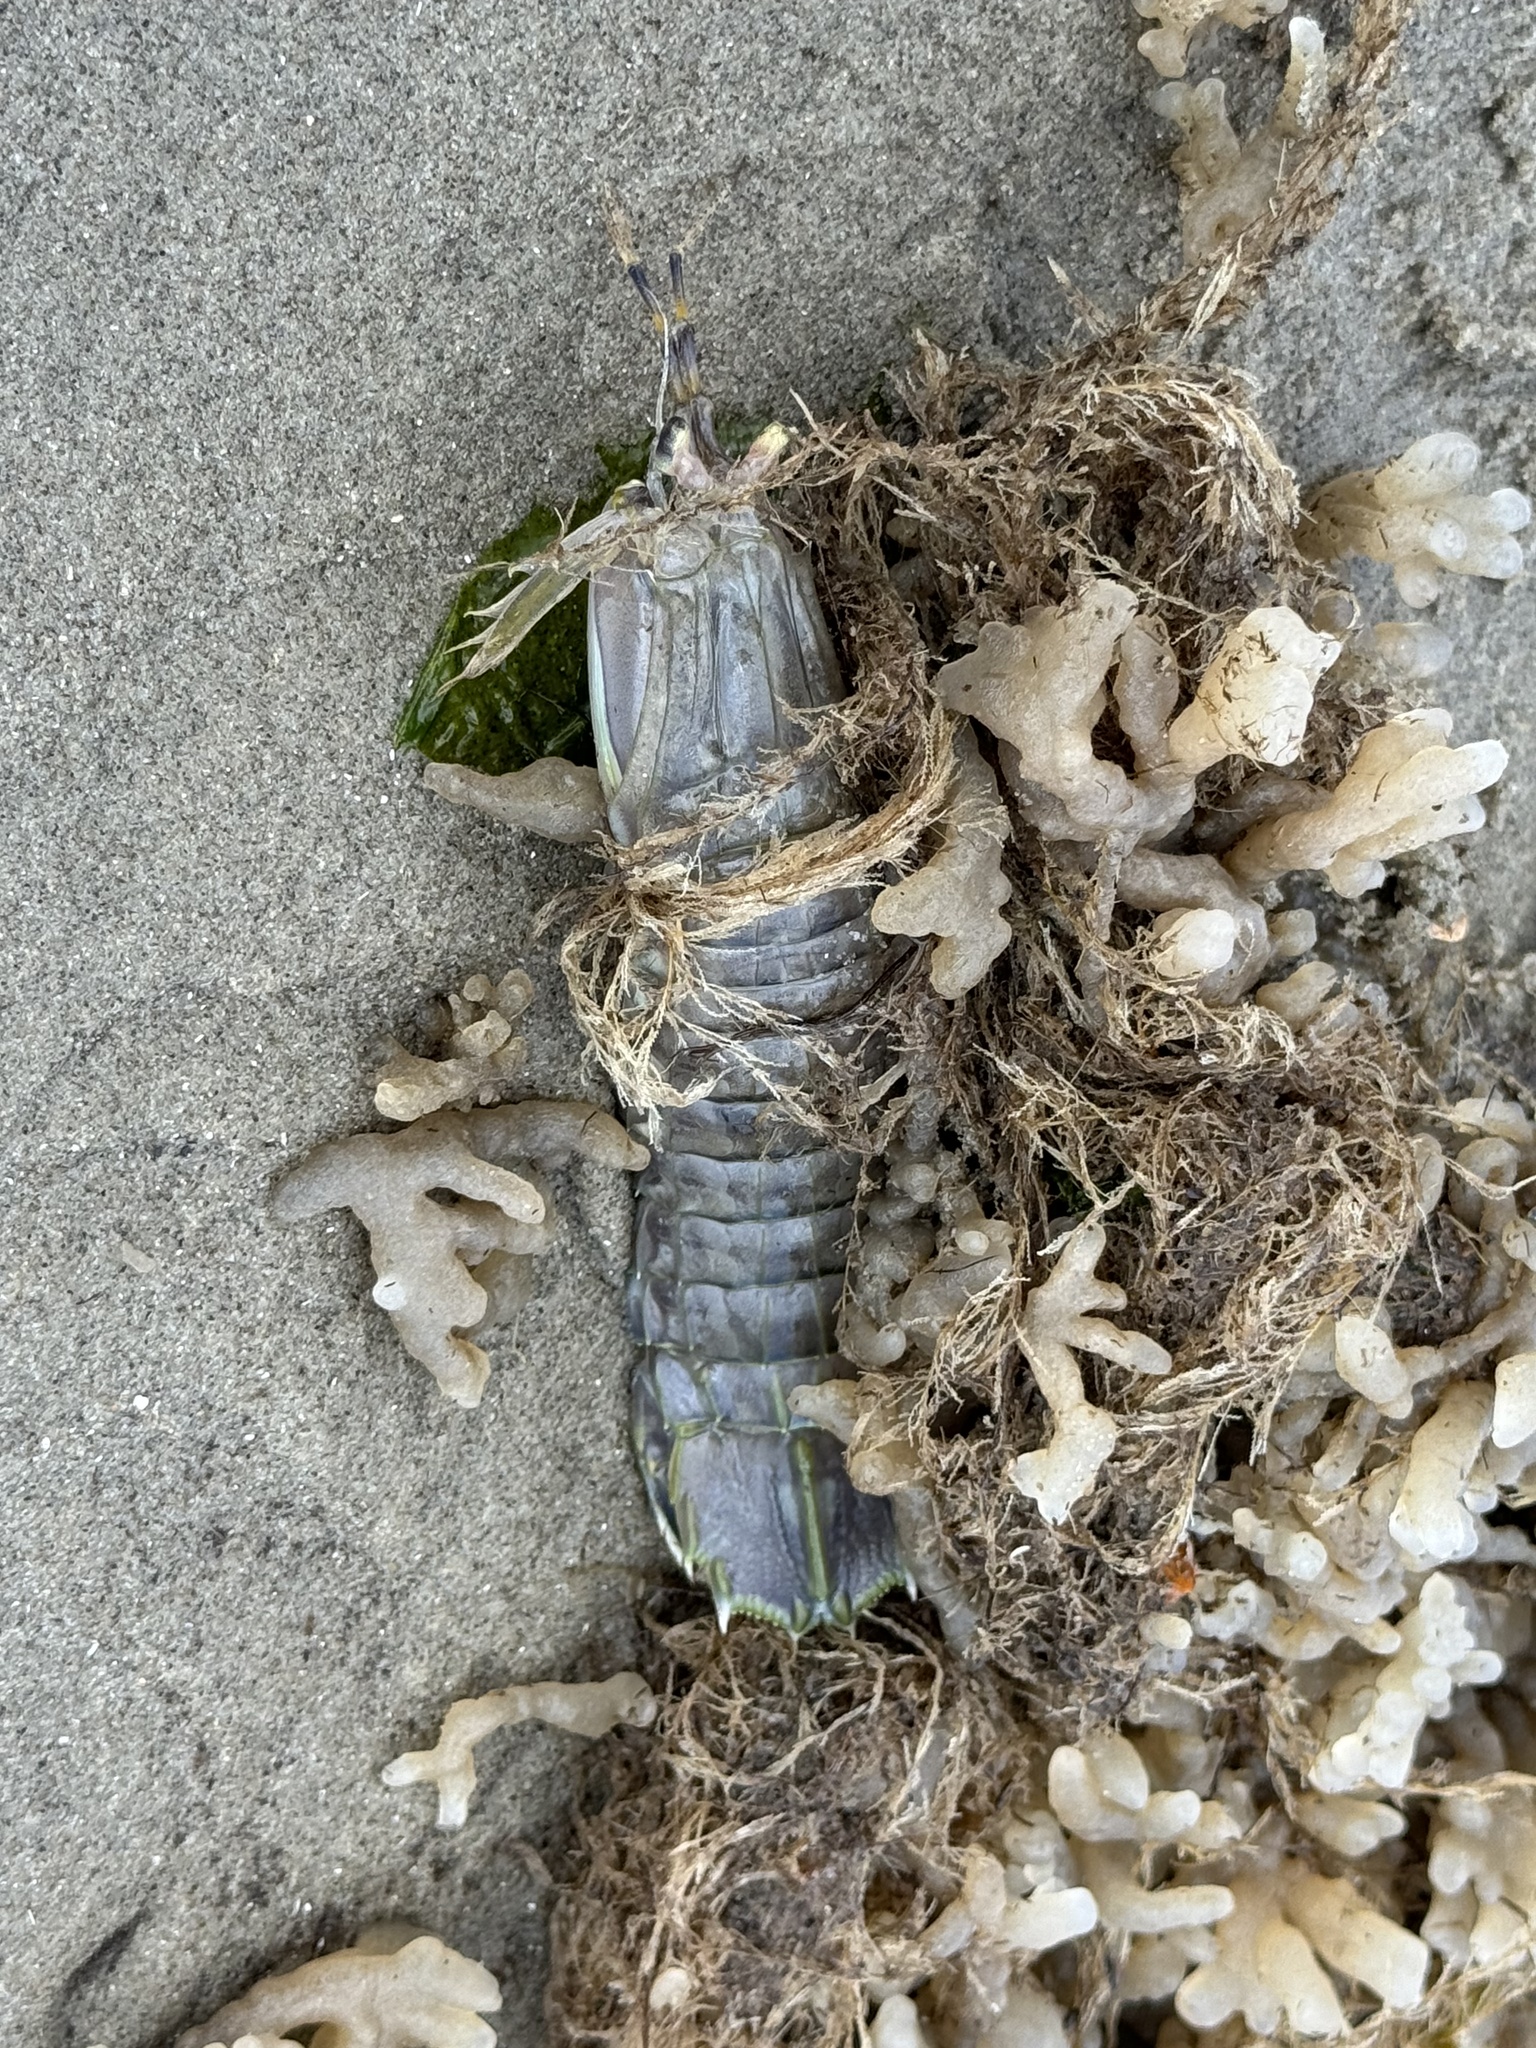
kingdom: Animalia
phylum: Arthropoda
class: Malacostraca
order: Stomatopoda
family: Squillidae
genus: Squilla
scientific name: Squilla empusa
